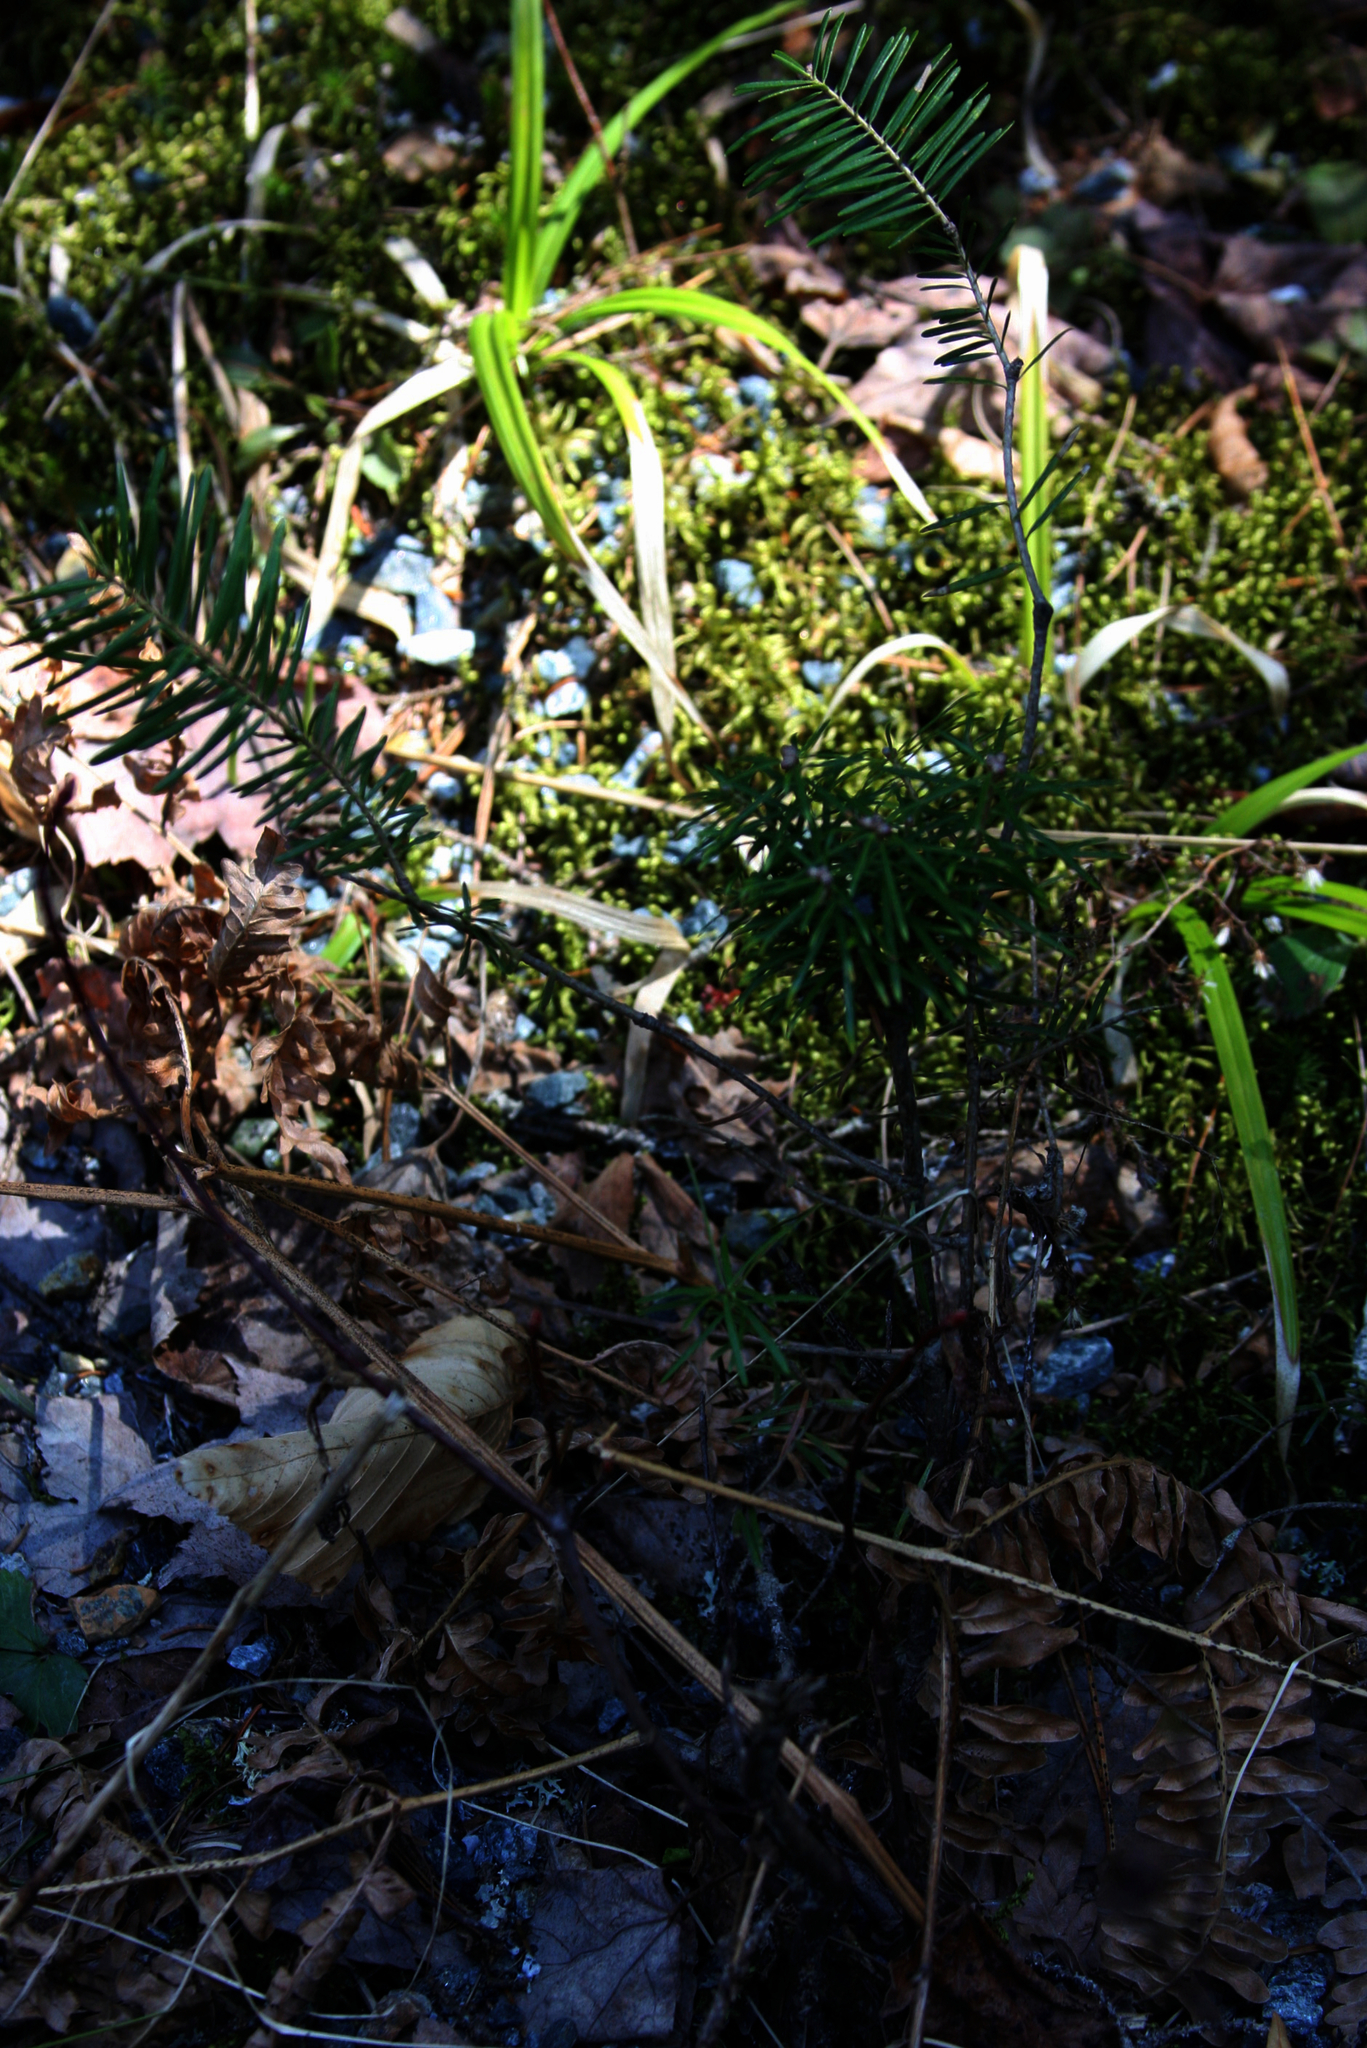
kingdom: Plantae
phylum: Tracheophyta
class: Pinopsida
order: Pinales
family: Pinaceae
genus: Abies
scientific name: Abies balsamea
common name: Balsam fir
